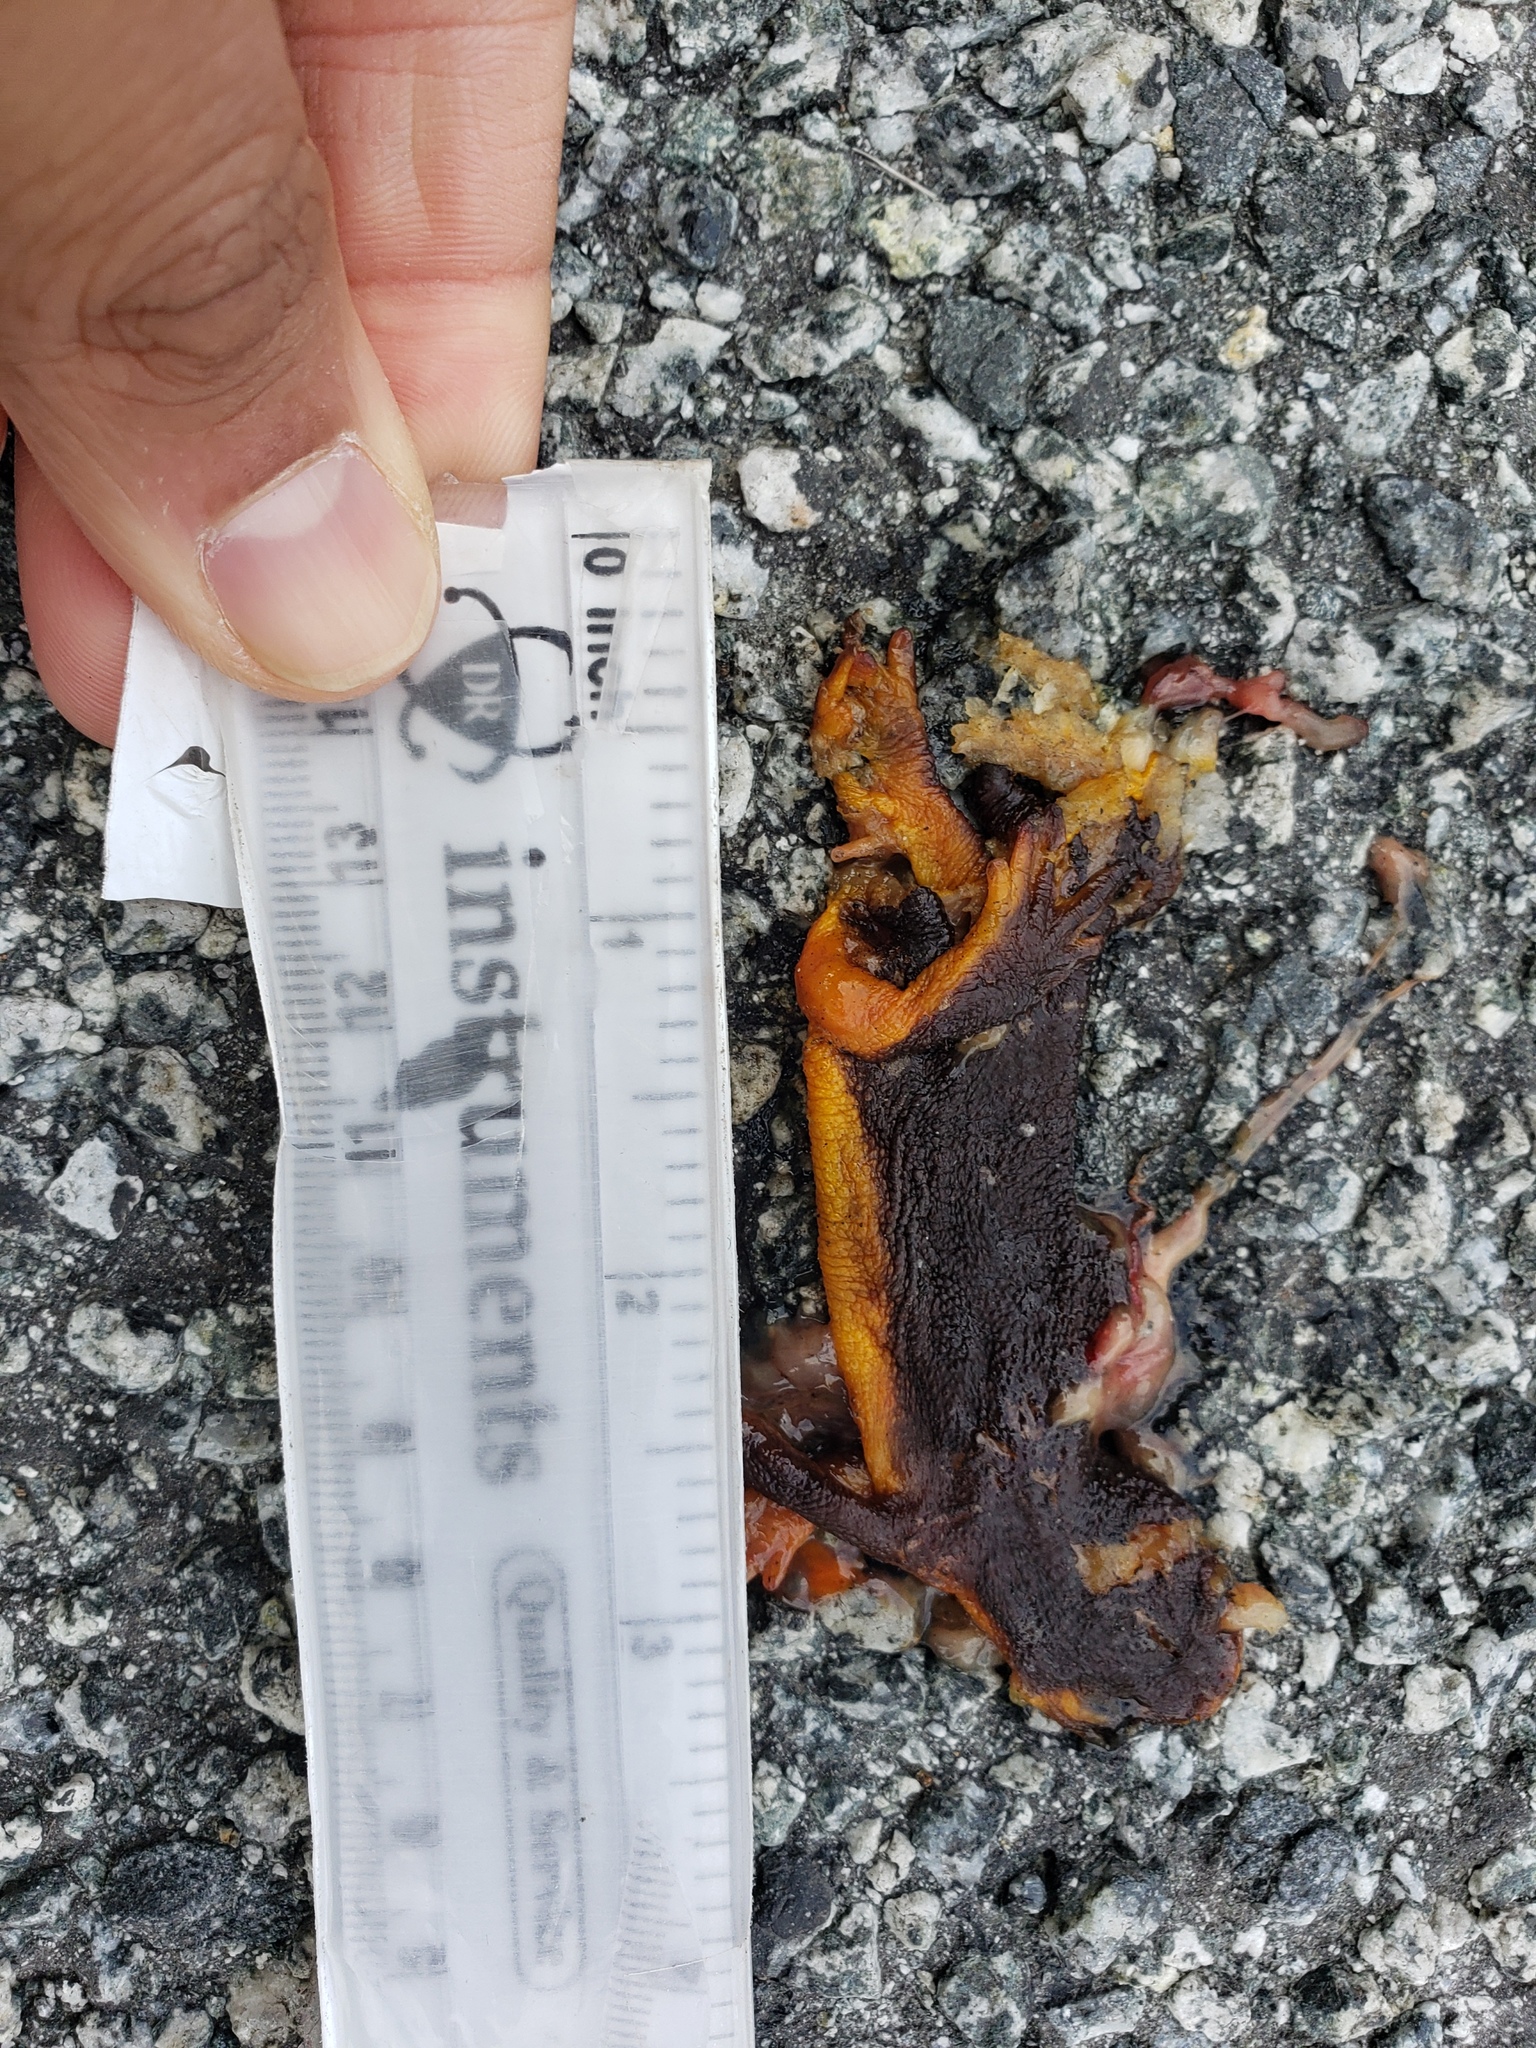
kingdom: Animalia
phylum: Chordata
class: Amphibia
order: Caudata
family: Salamandridae
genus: Taricha
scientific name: Taricha
